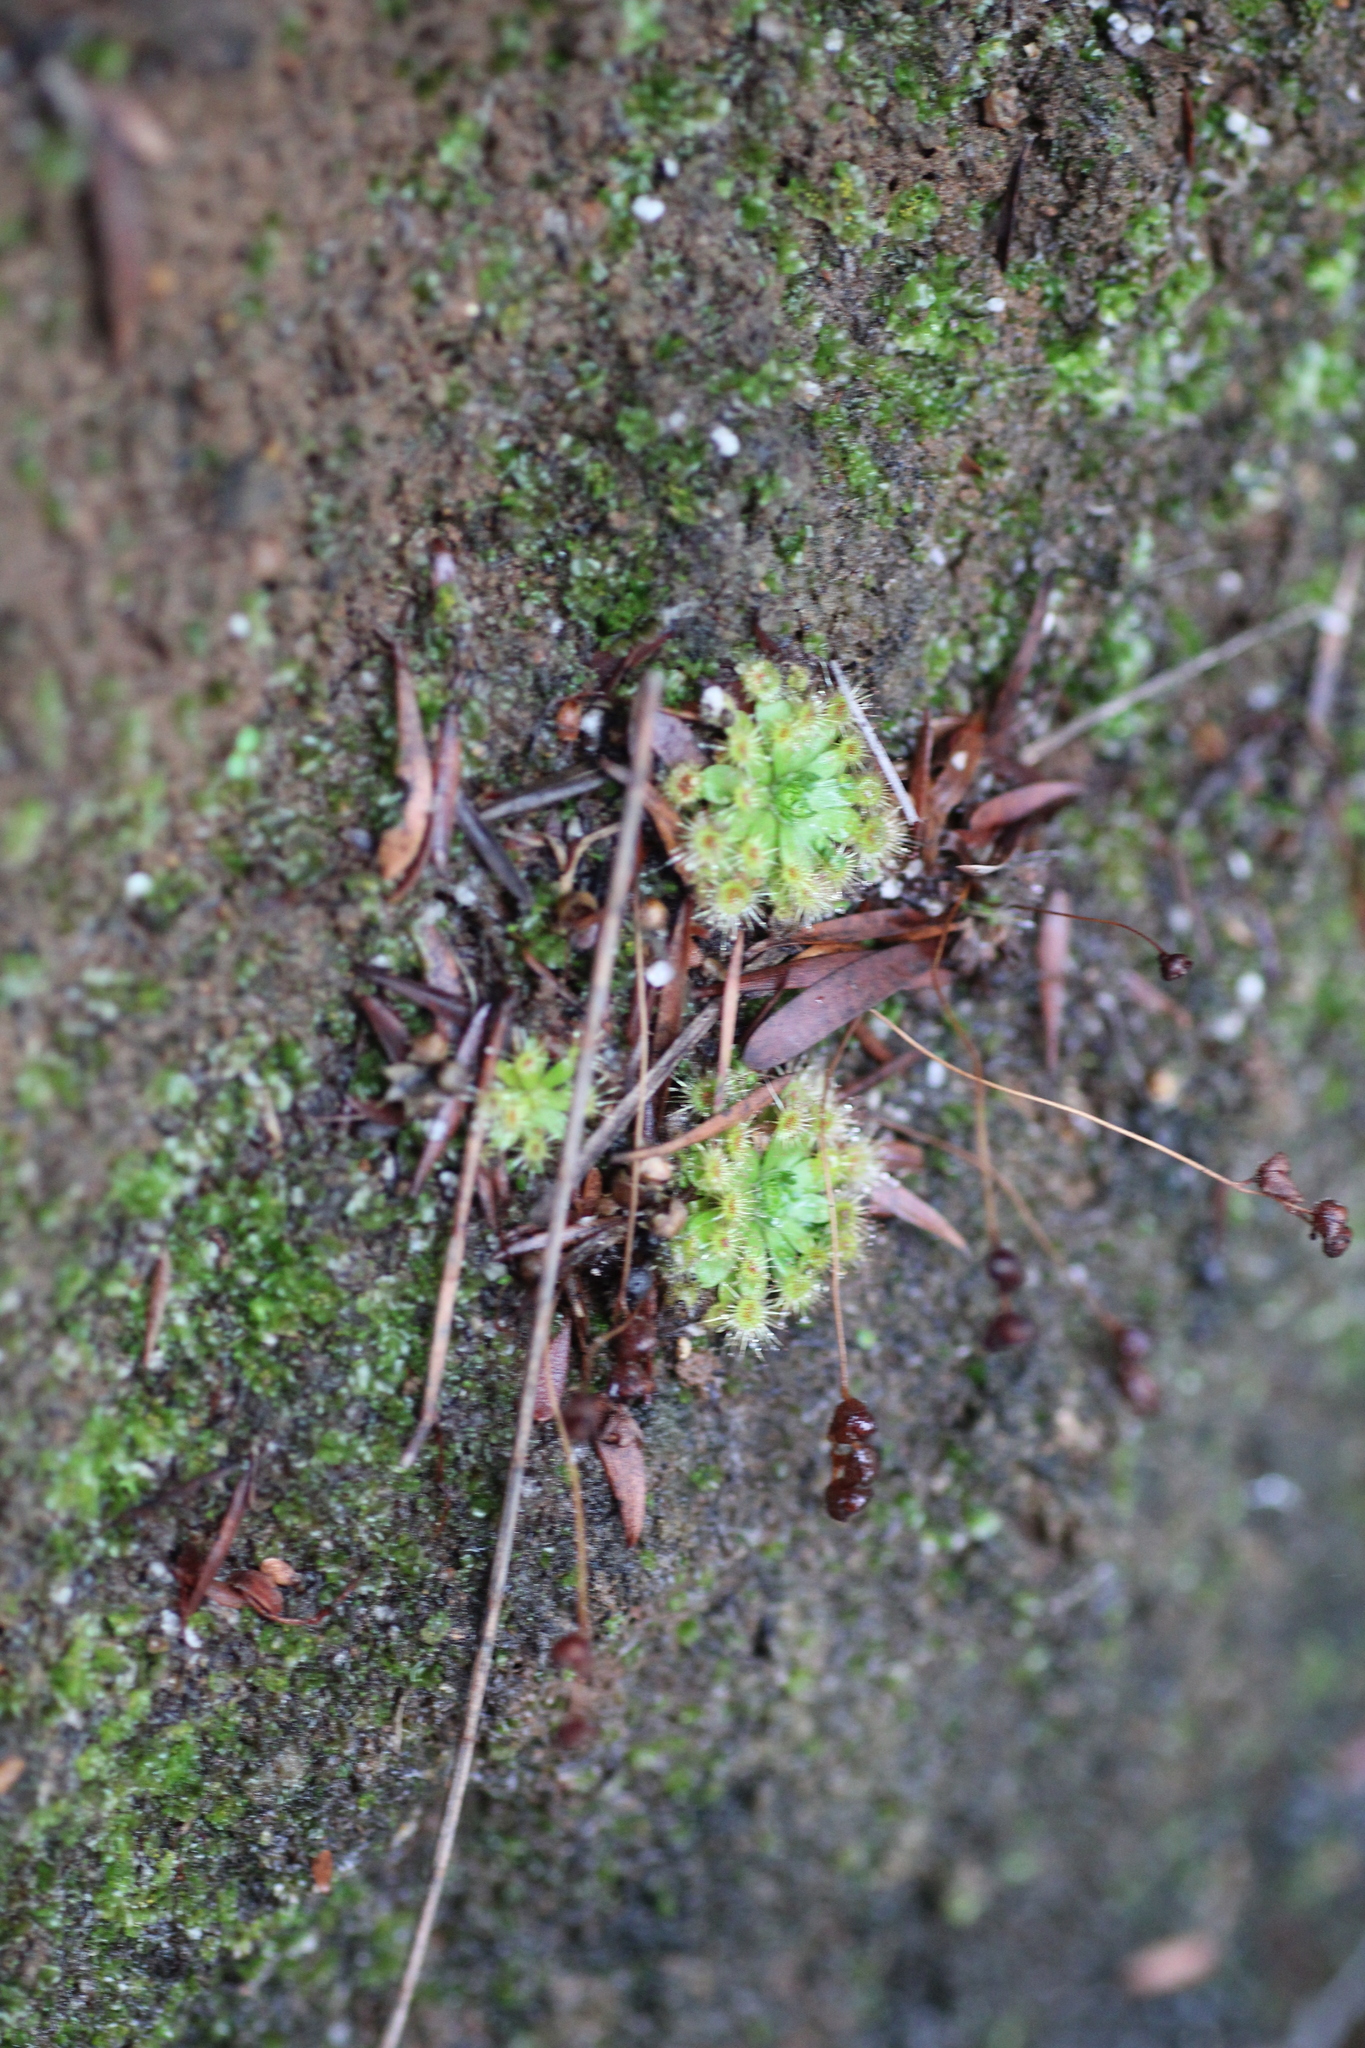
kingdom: Plantae
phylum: Tracheophyta
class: Magnoliopsida
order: Caryophyllales
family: Droseraceae
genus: Drosera
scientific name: Drosera pulchella
